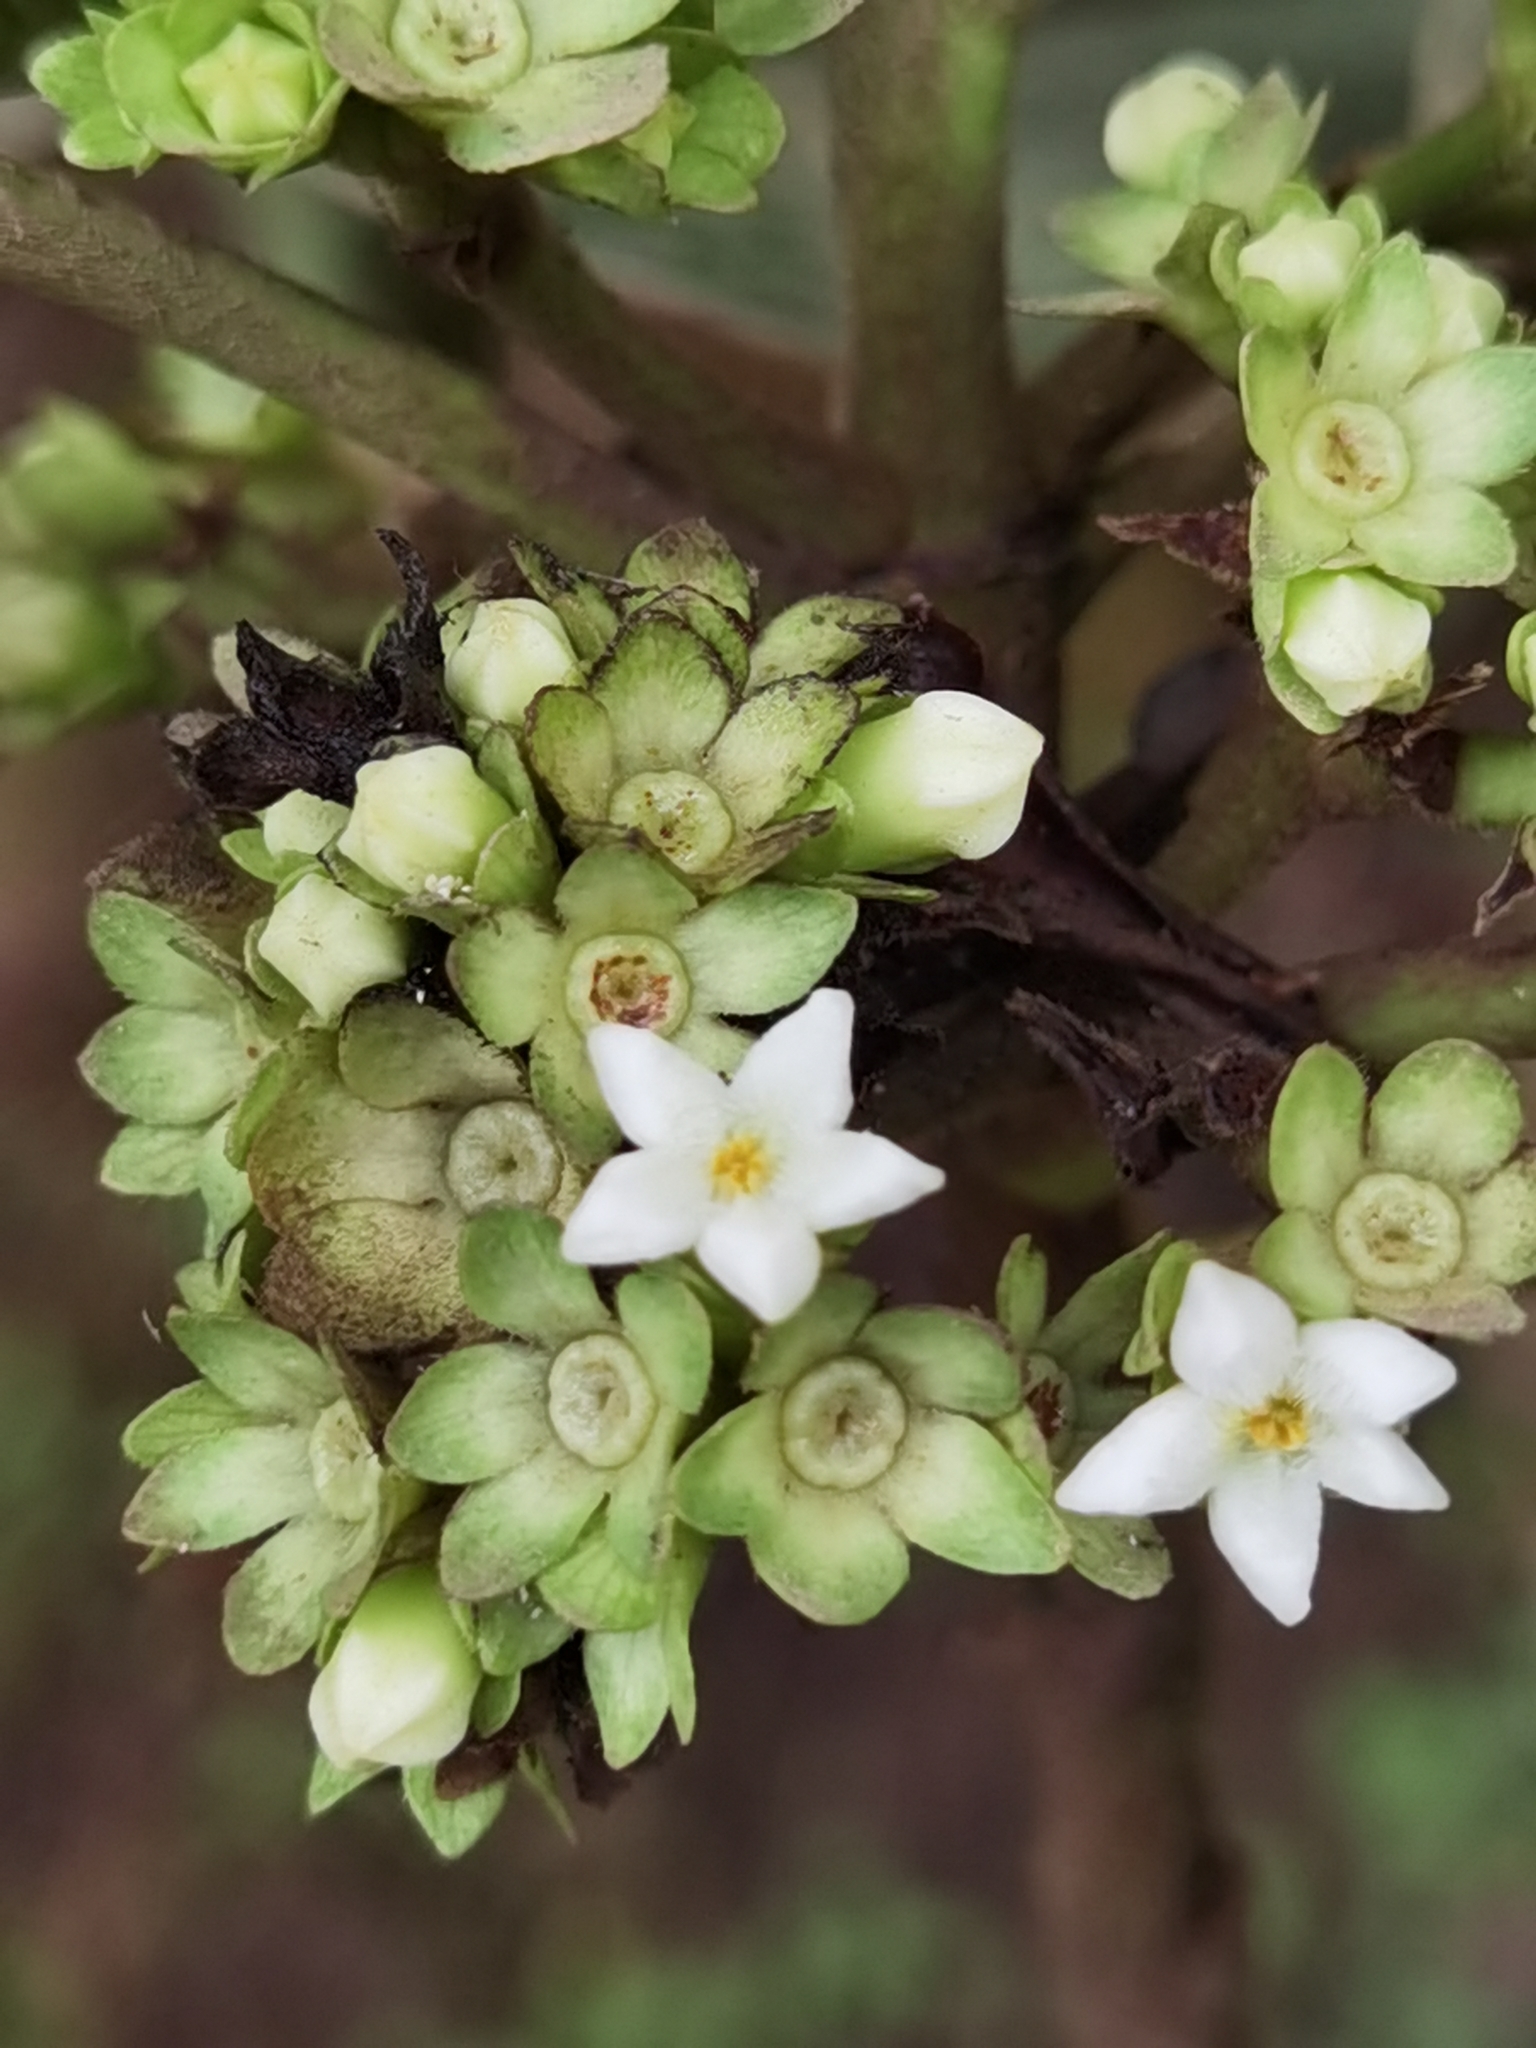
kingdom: Plantae
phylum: Tracheophyta
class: Magnoliopsida
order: Gentianales
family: Rubiaceae
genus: Sommera
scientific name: Sommera donnell-smithii
